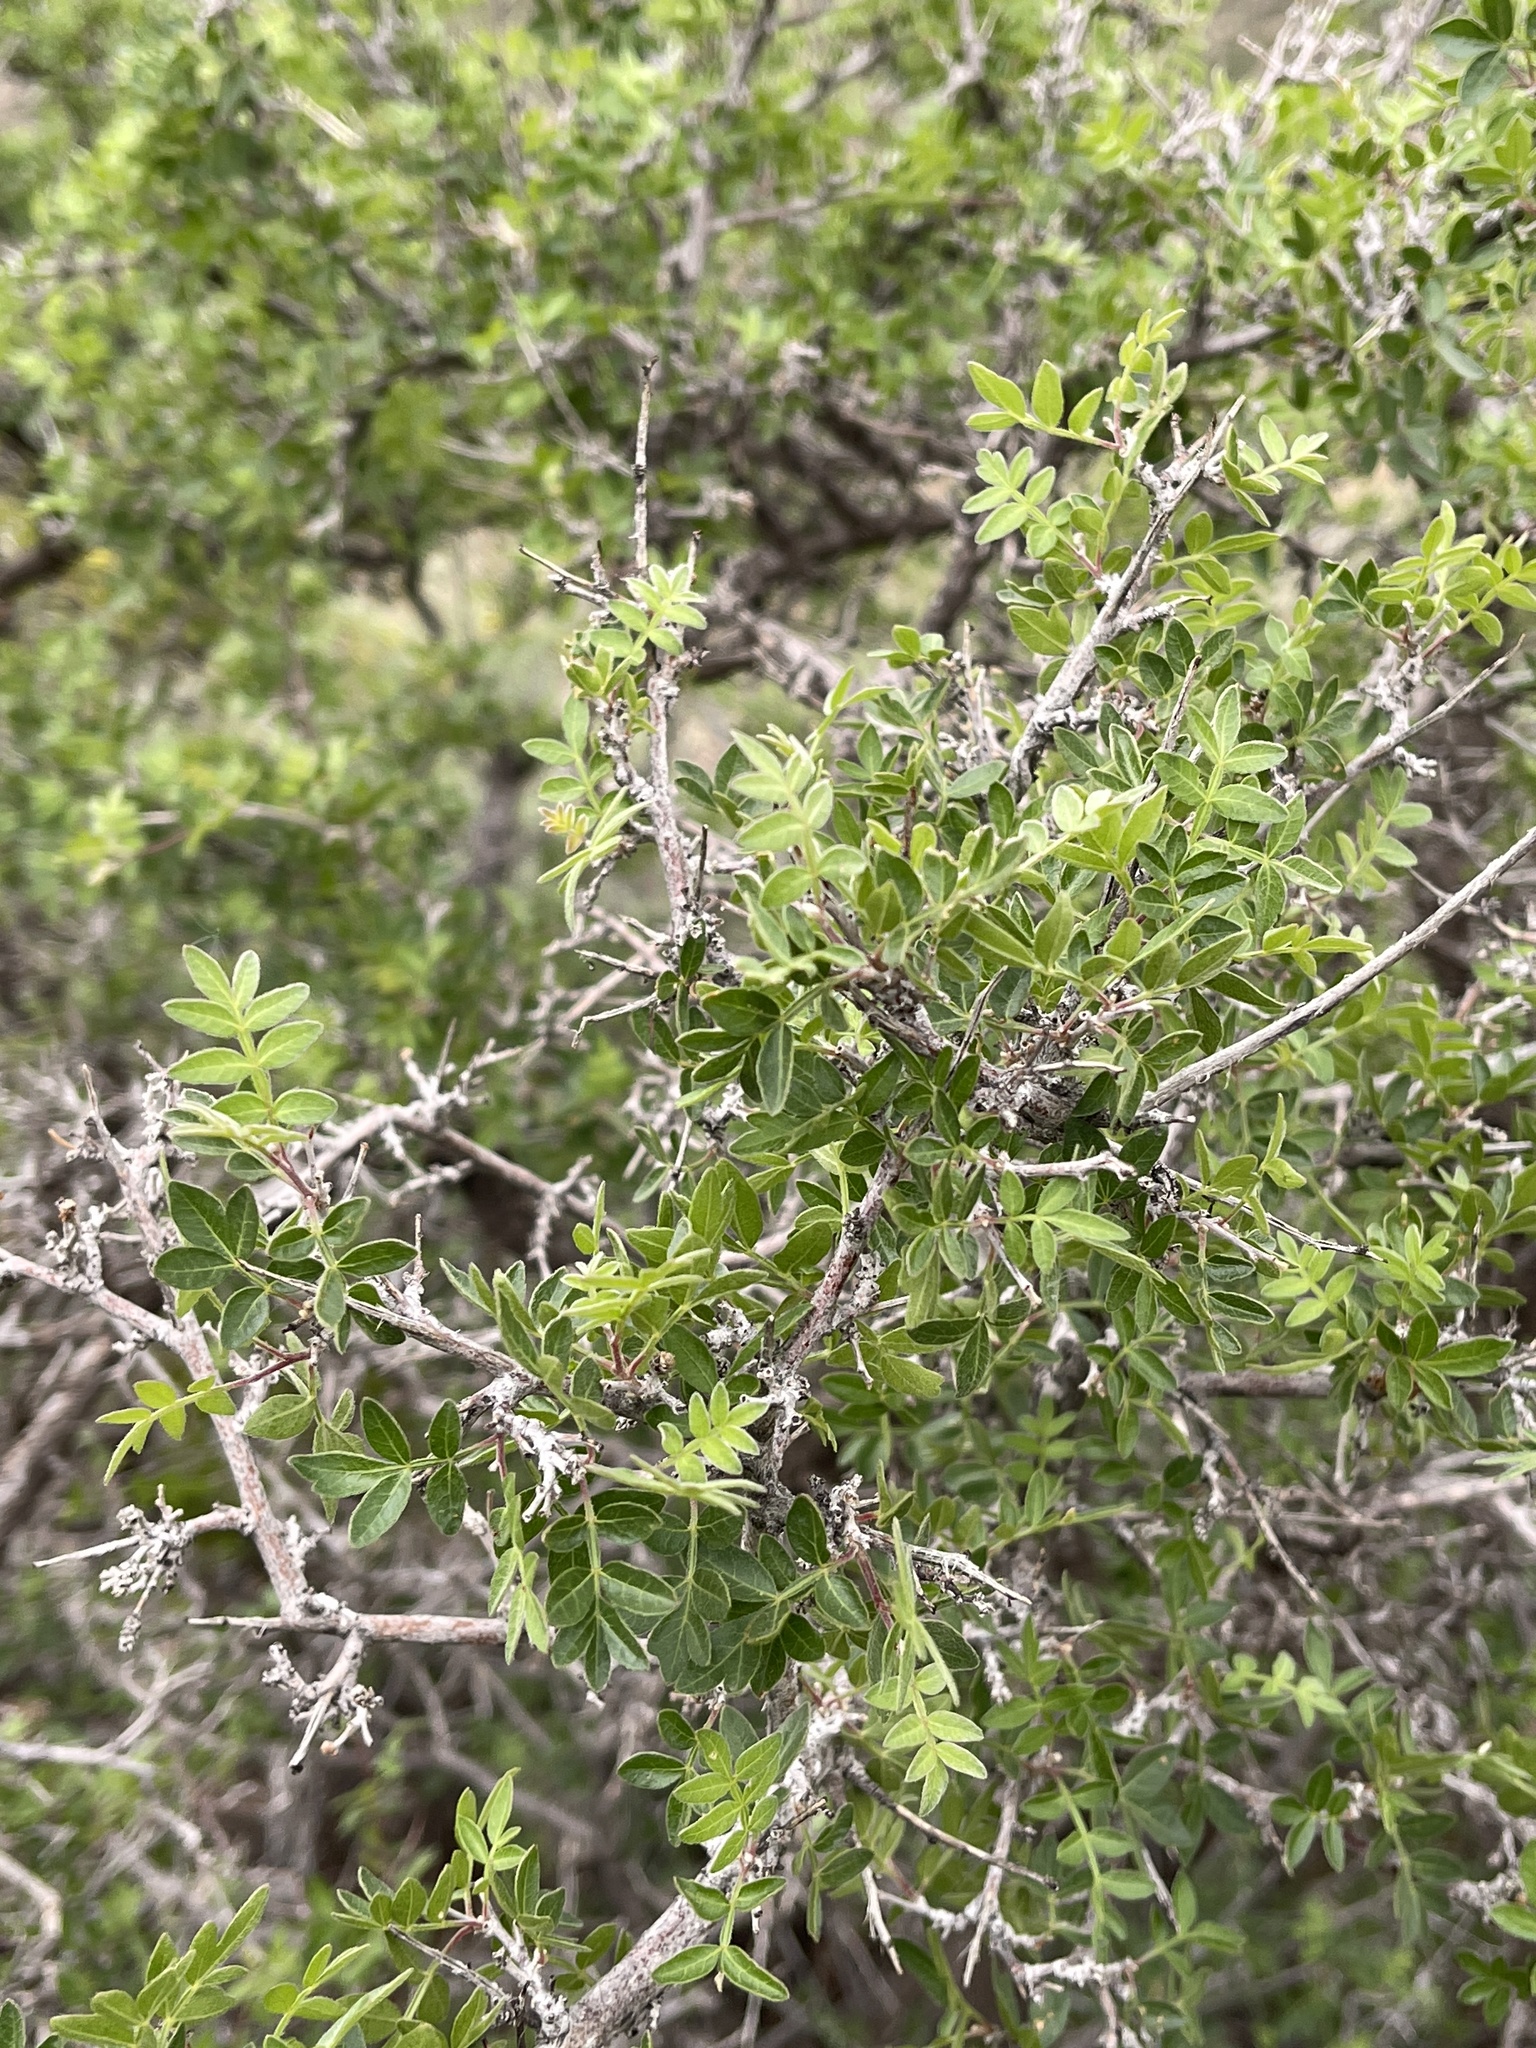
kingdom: Plantae
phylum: Tracheophyta
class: Magnoliopsida
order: Sapindales
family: Anacardiaceae
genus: Rhus
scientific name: Rhus microphylla
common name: Desert sumac
